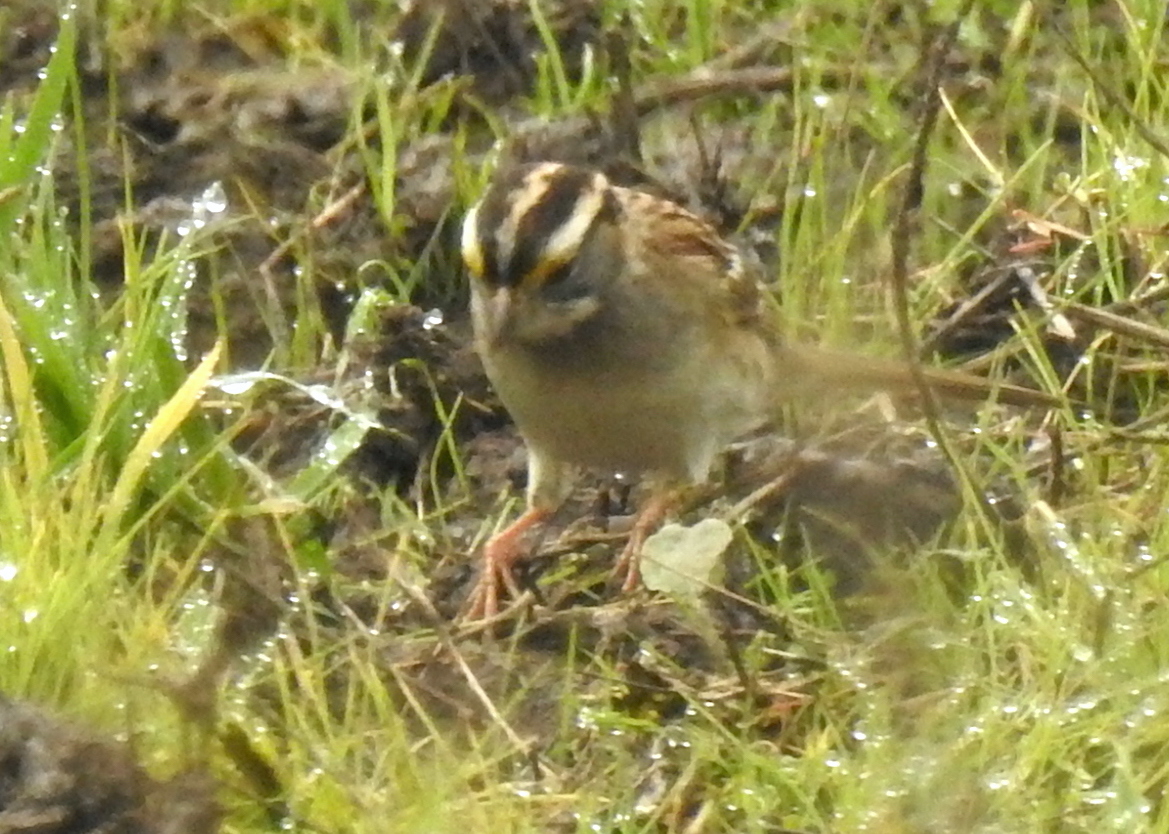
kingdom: Animalia
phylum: Chordata
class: Aves
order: Passeriformes
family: Passerellidae
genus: Zonotrichia
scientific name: Zonotrichia albicollis
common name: White-throated sparrow
